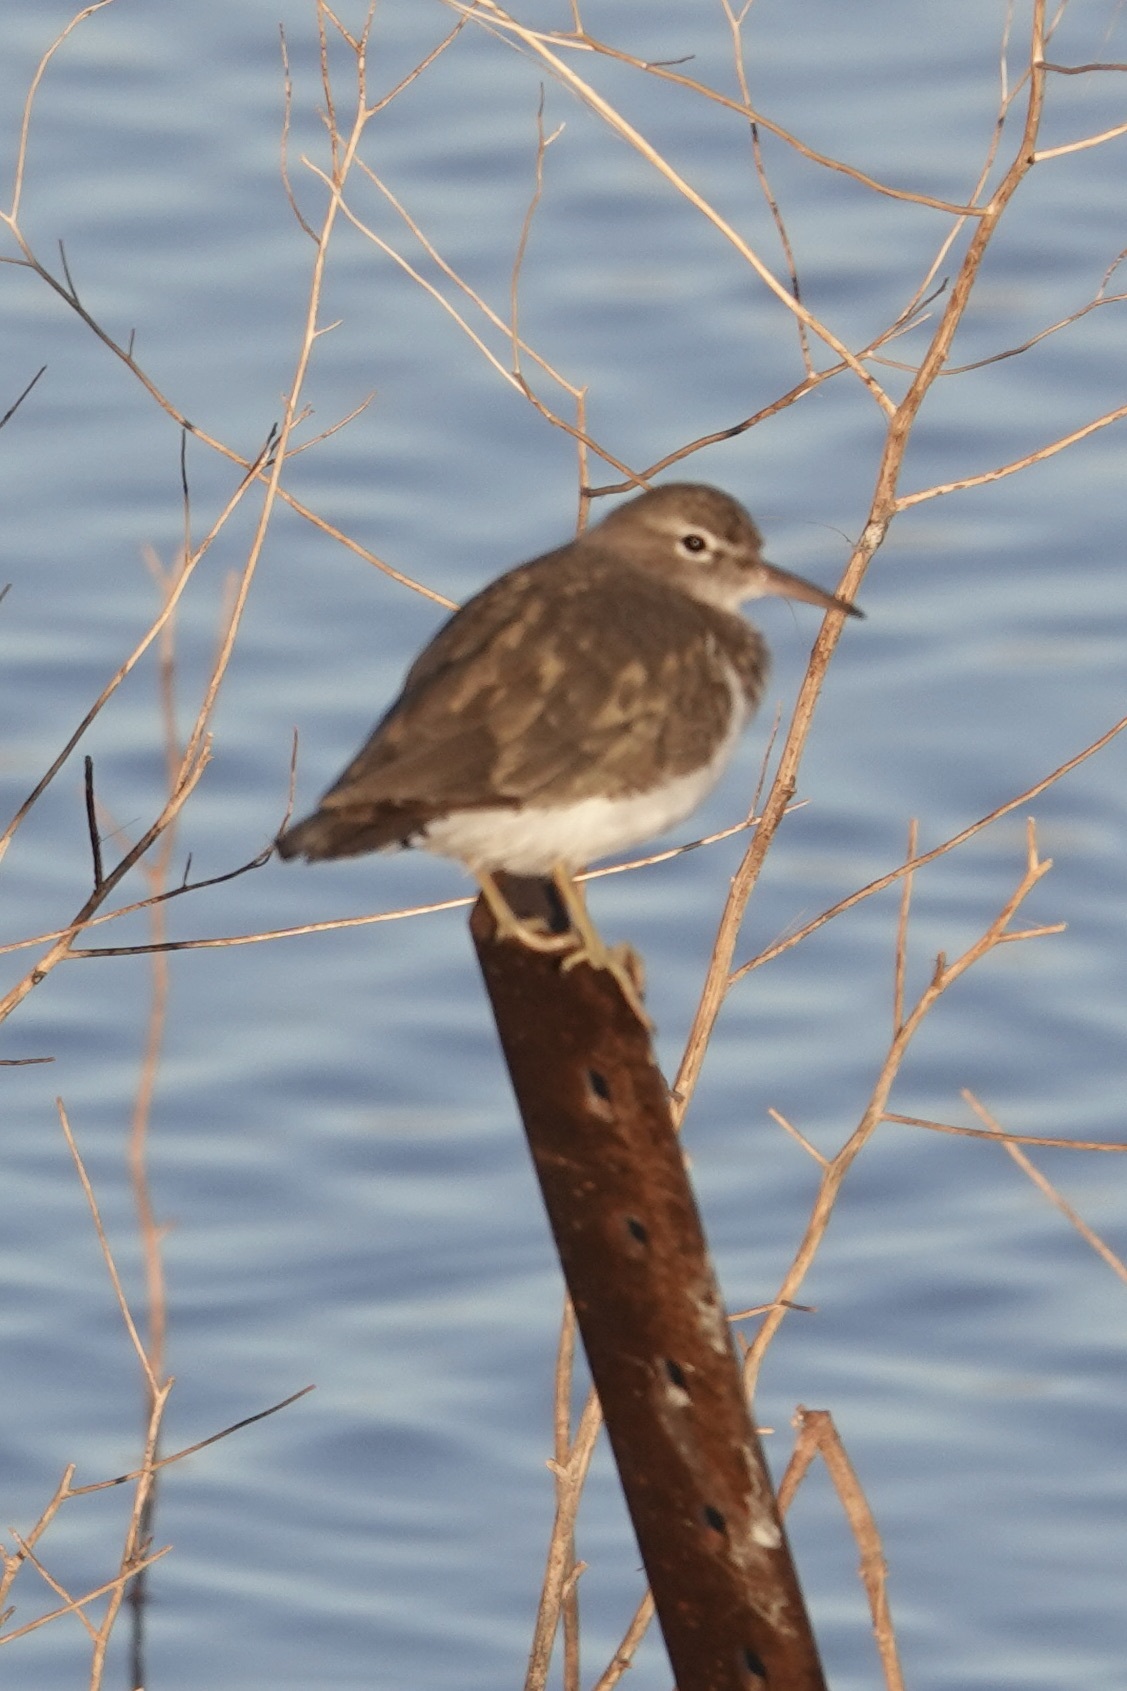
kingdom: Animalia
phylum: Chordata
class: Aves
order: Charadriiformes
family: Scolopacidae
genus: Actitis
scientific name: Actitis macularius
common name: Spotted sandpiper
